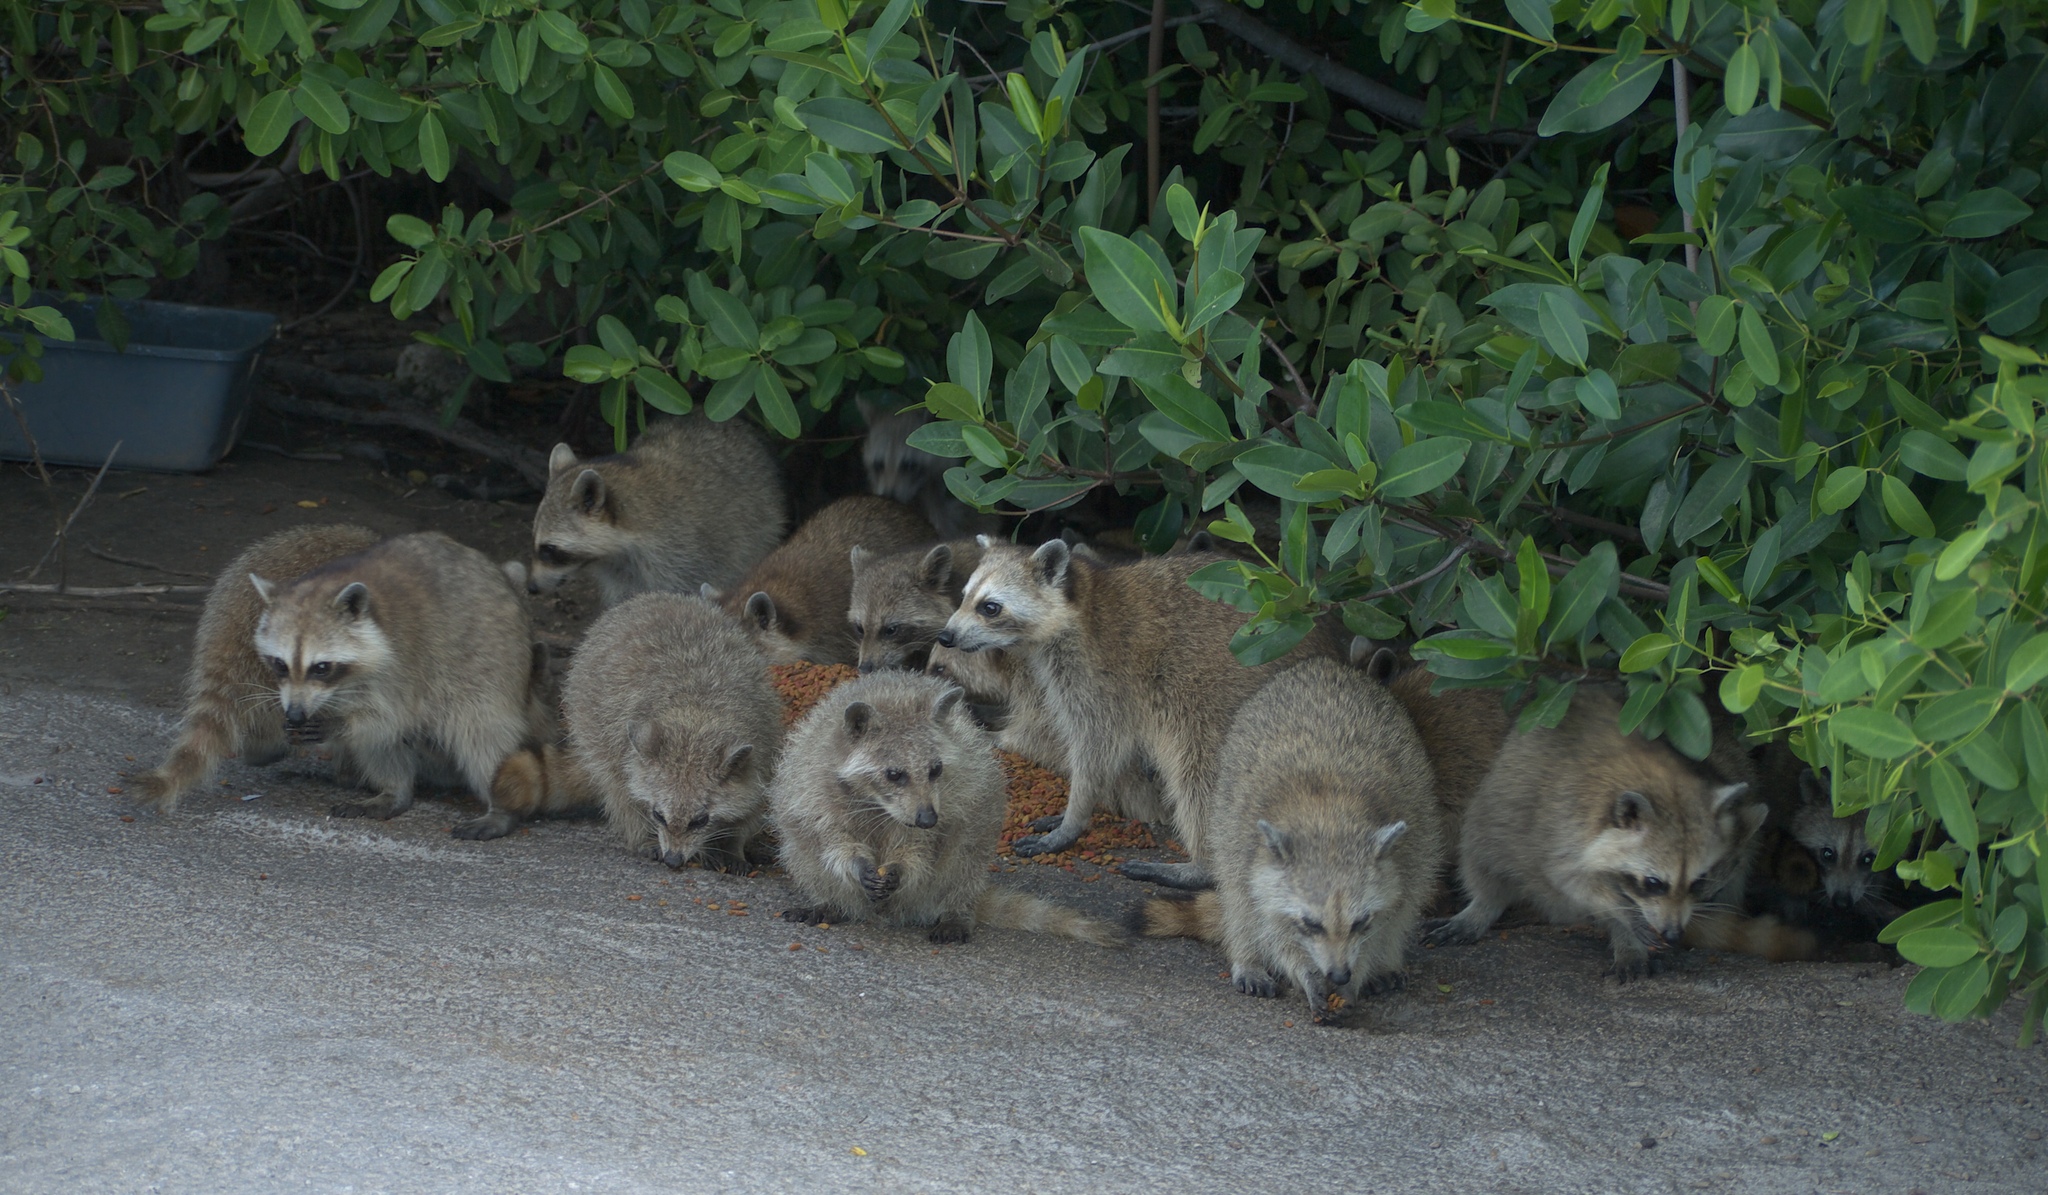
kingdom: Animalia
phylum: Chordata
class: Mammalia
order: Carnivora
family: Procyonidae
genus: Procyon
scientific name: Procyon lotor
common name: Raccoon
